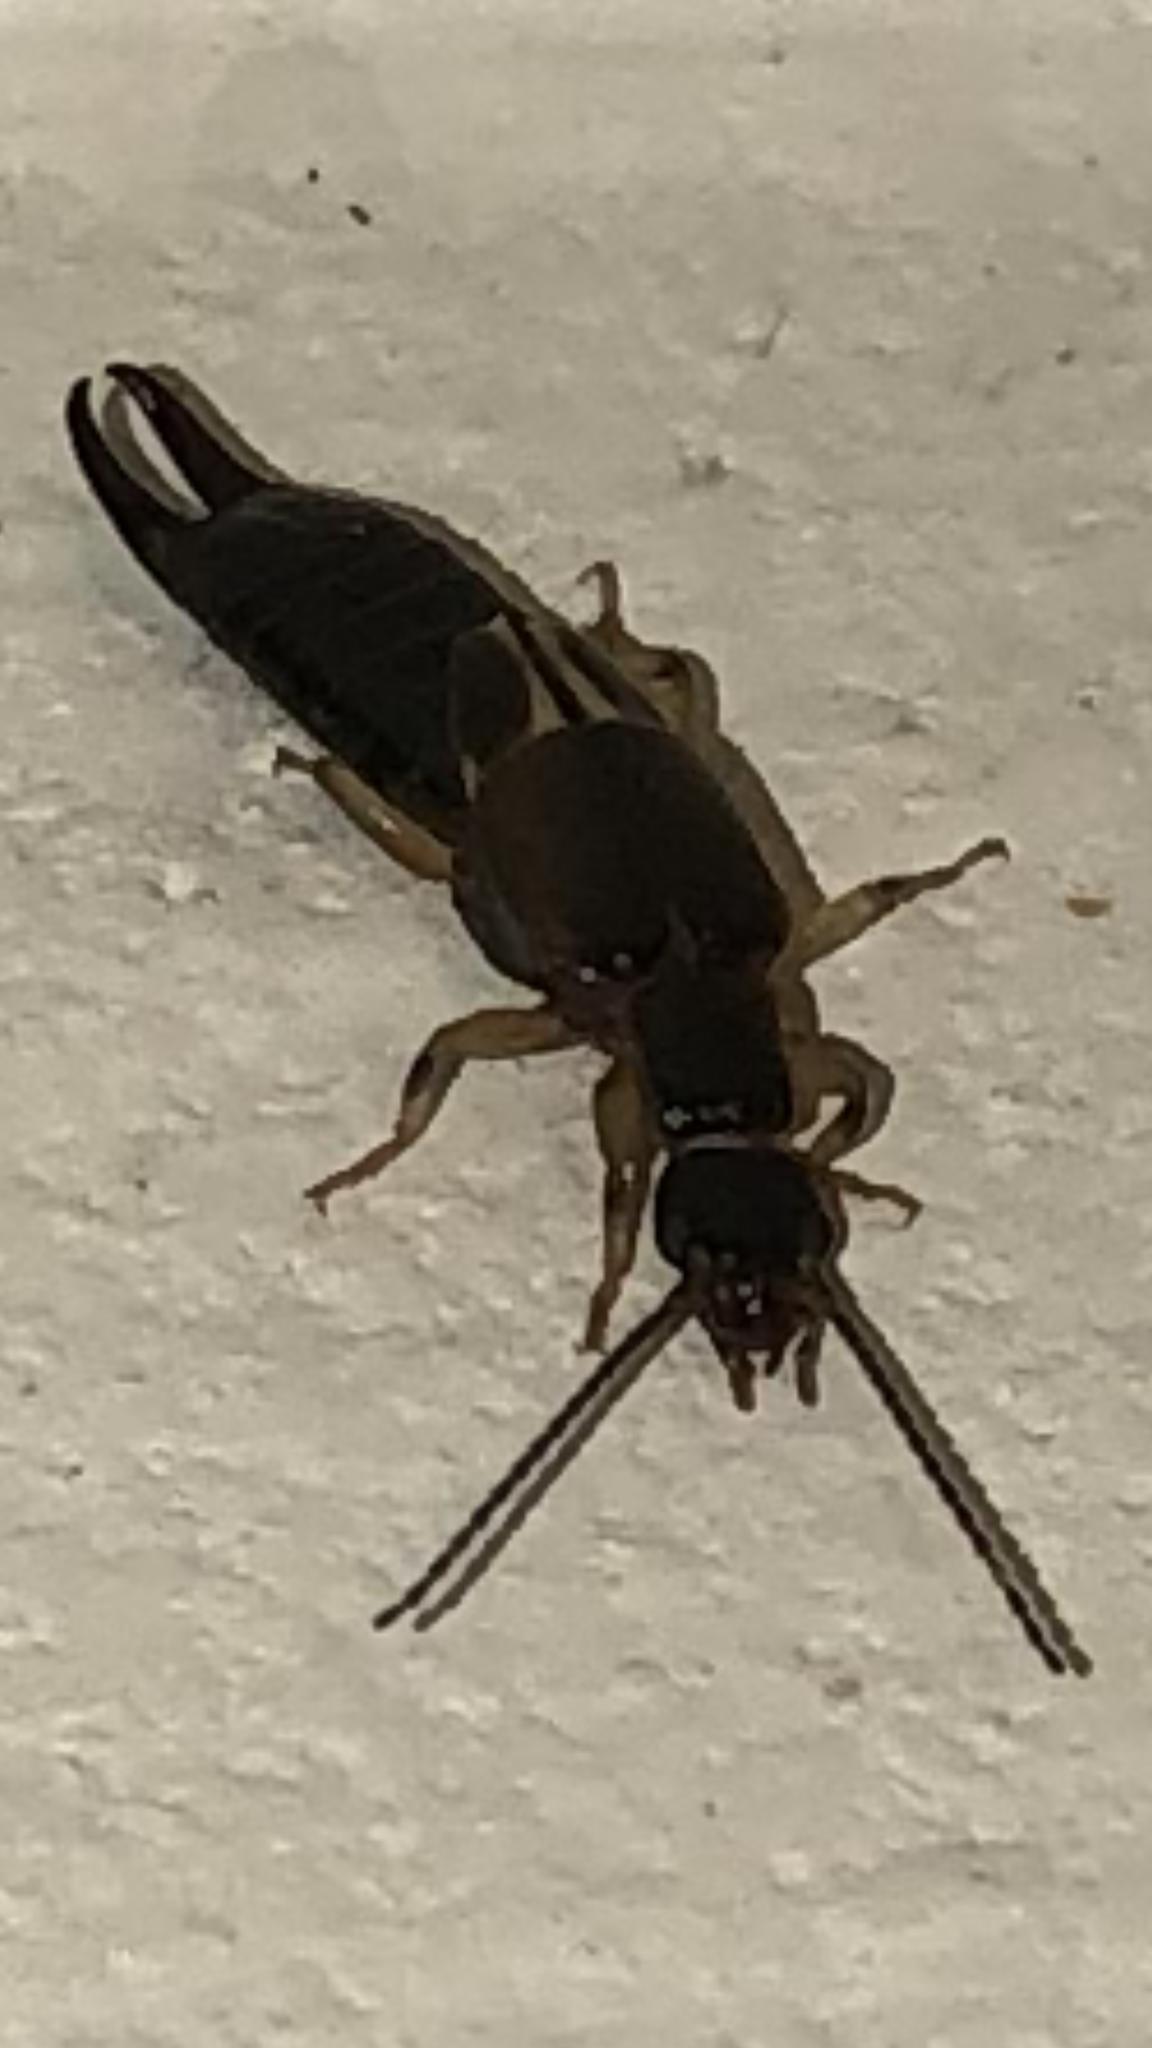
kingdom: Animalia
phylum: Arthropoda
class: Insecta
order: Dermaptera
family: Anisolabididae
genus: Euborellia
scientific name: Euborellia cincticollis
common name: African earwig
